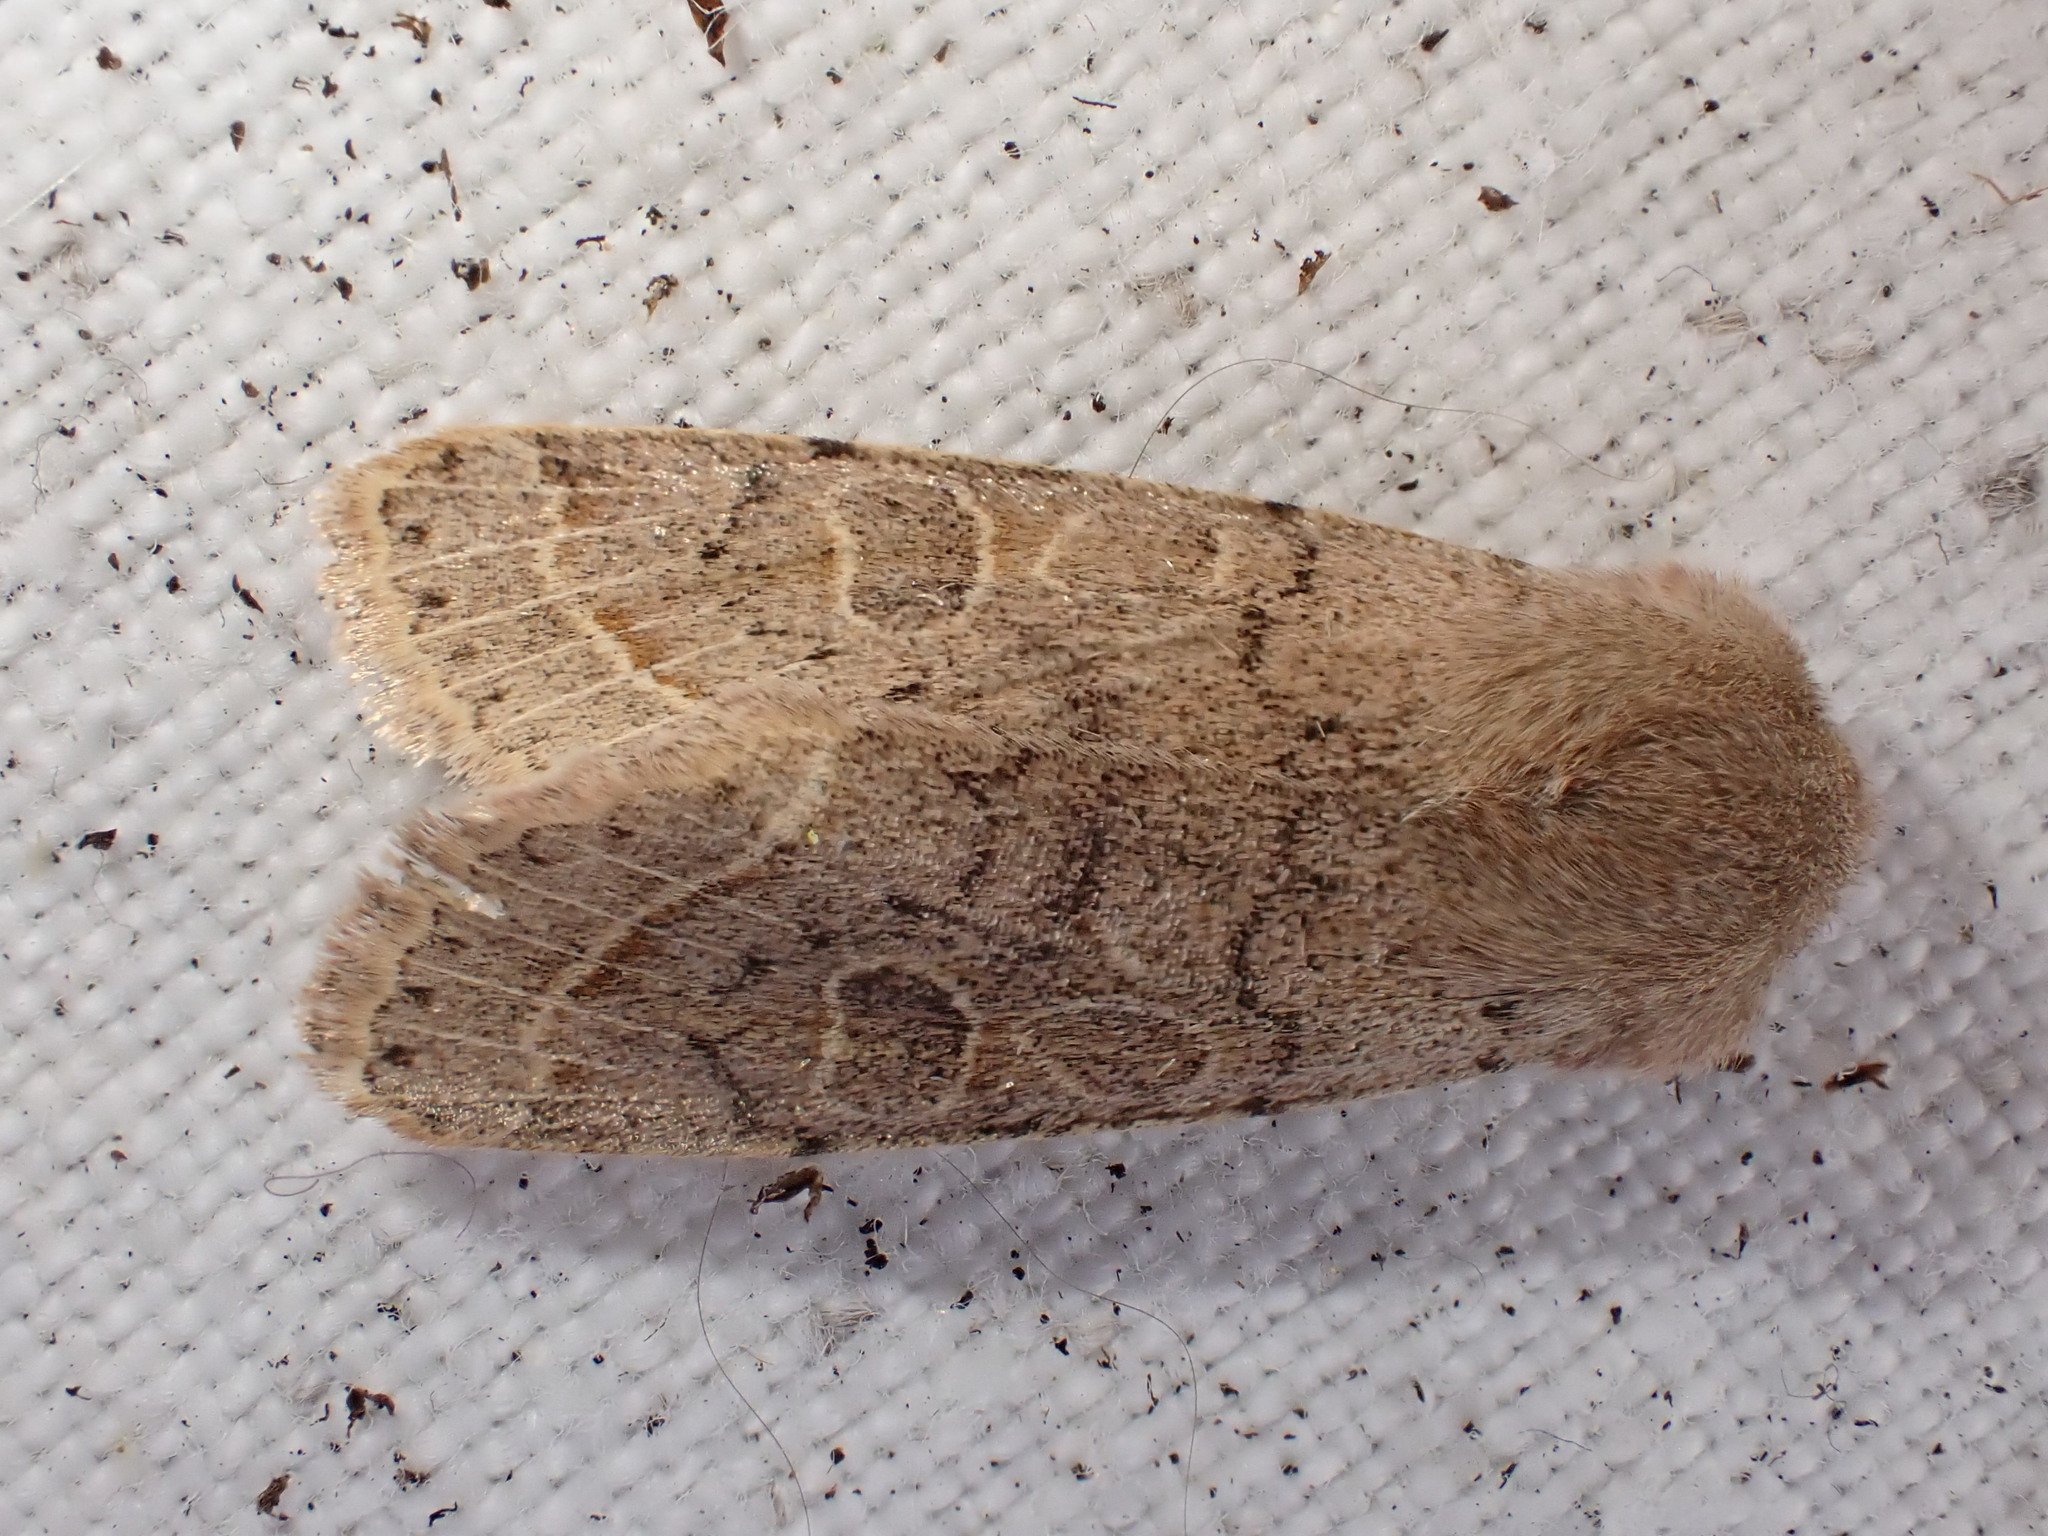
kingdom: Animalia
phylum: Arthropoda
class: Insecta
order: Lepidoptera
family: Noctuidae
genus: Orthosia
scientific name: Orthosia cerasi
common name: Common quaker
